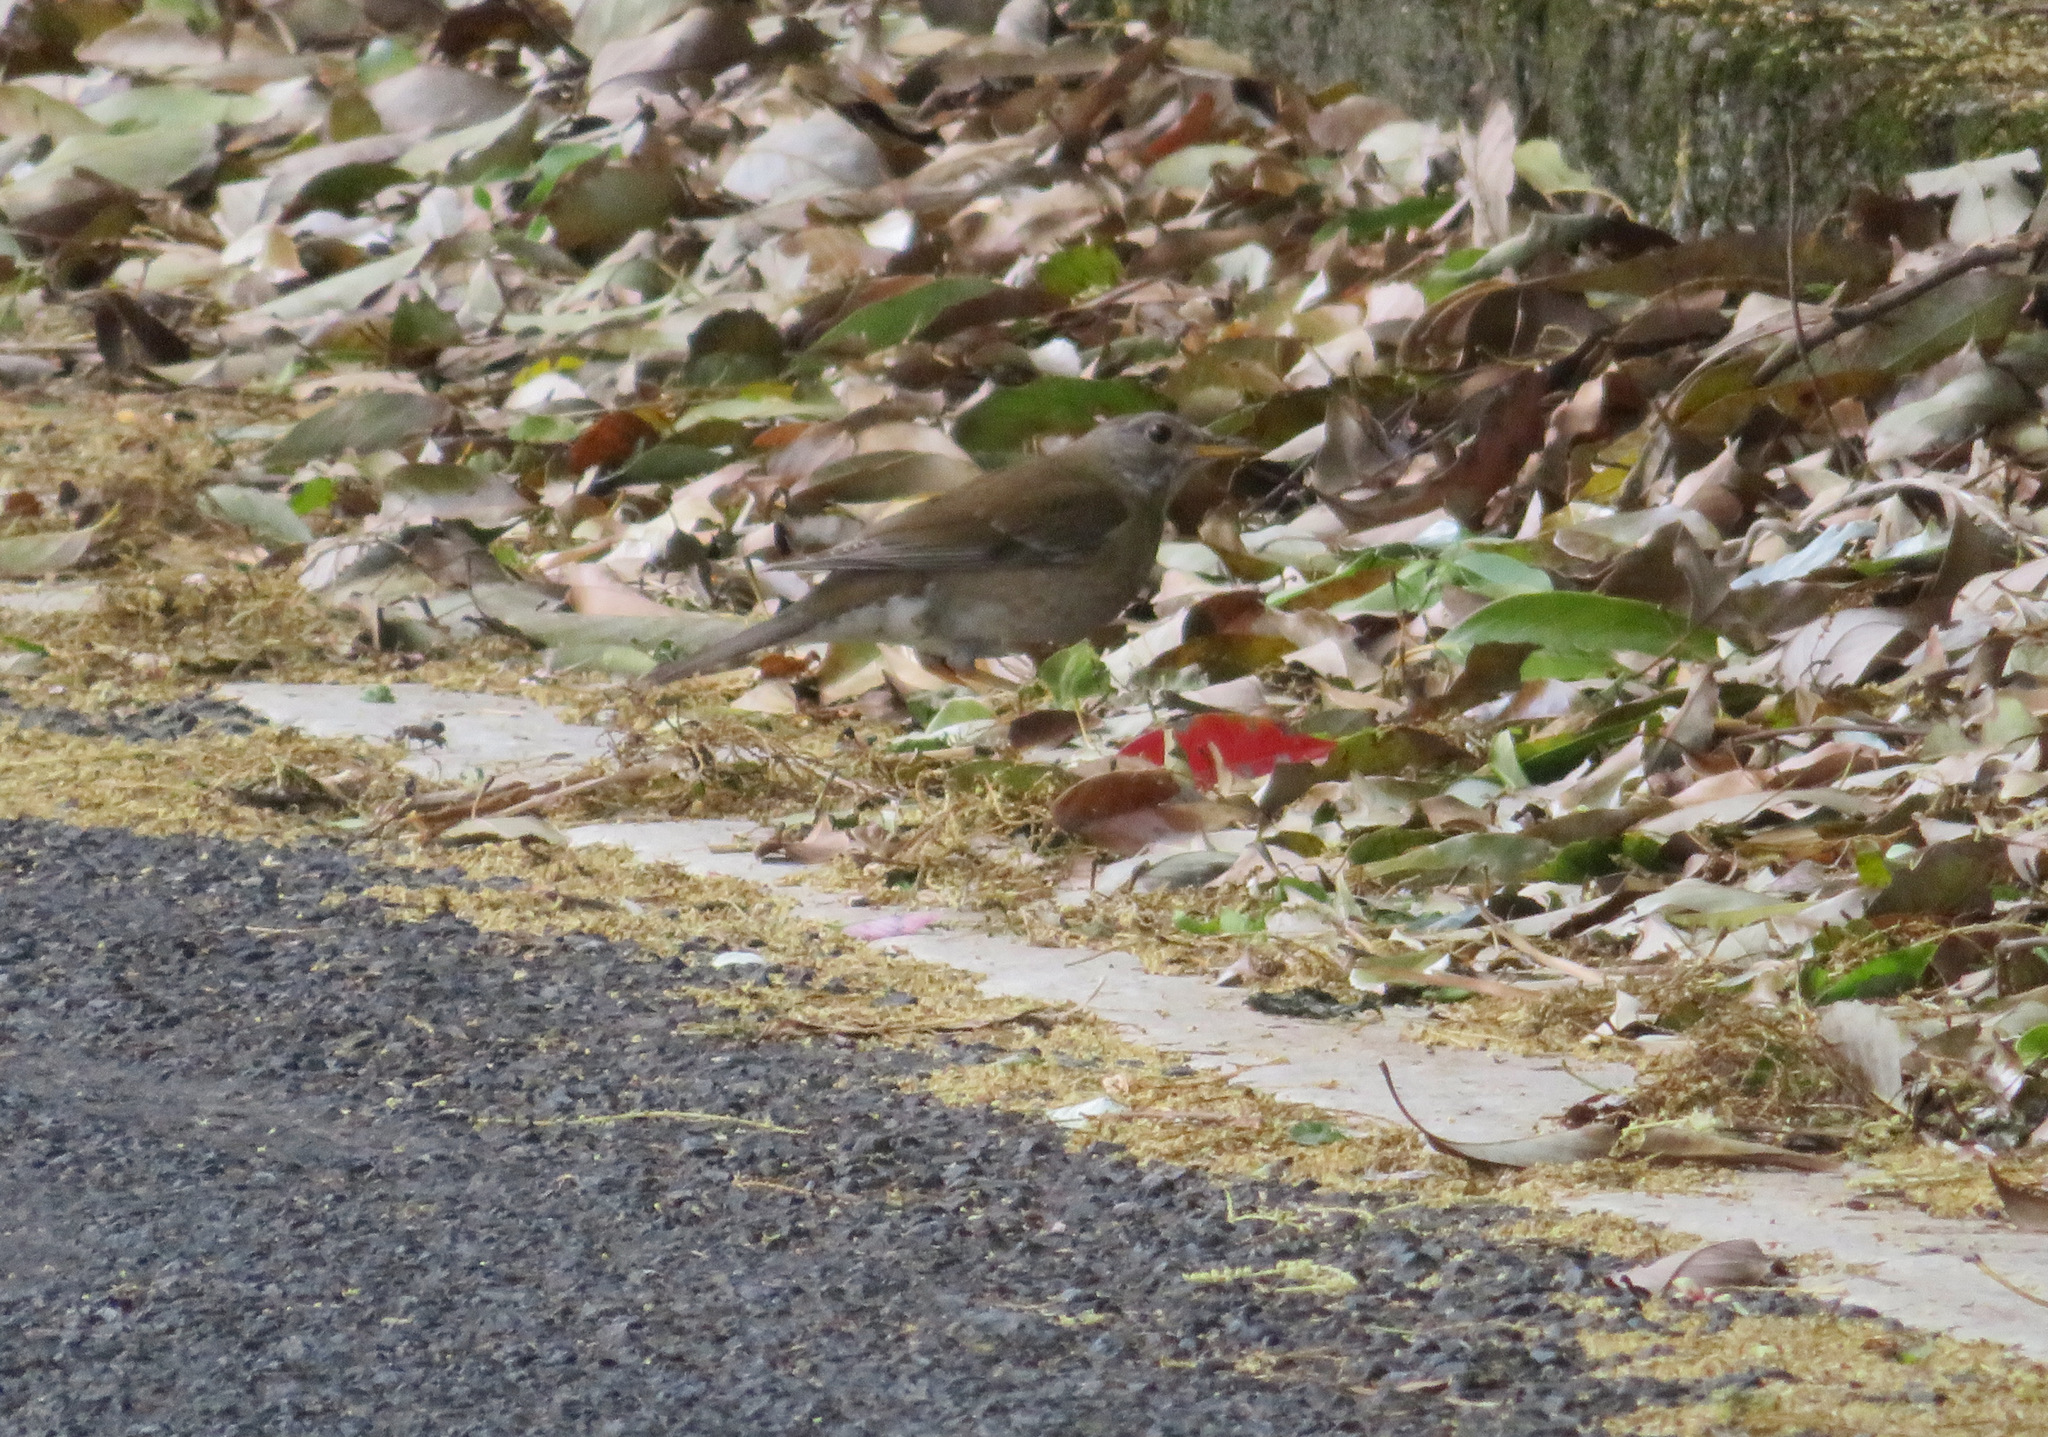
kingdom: Animalia
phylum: Chordata
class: Aves
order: Passeriformes
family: Turdidae
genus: Turdus
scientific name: Turdus pallidus
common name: Pale thrush
